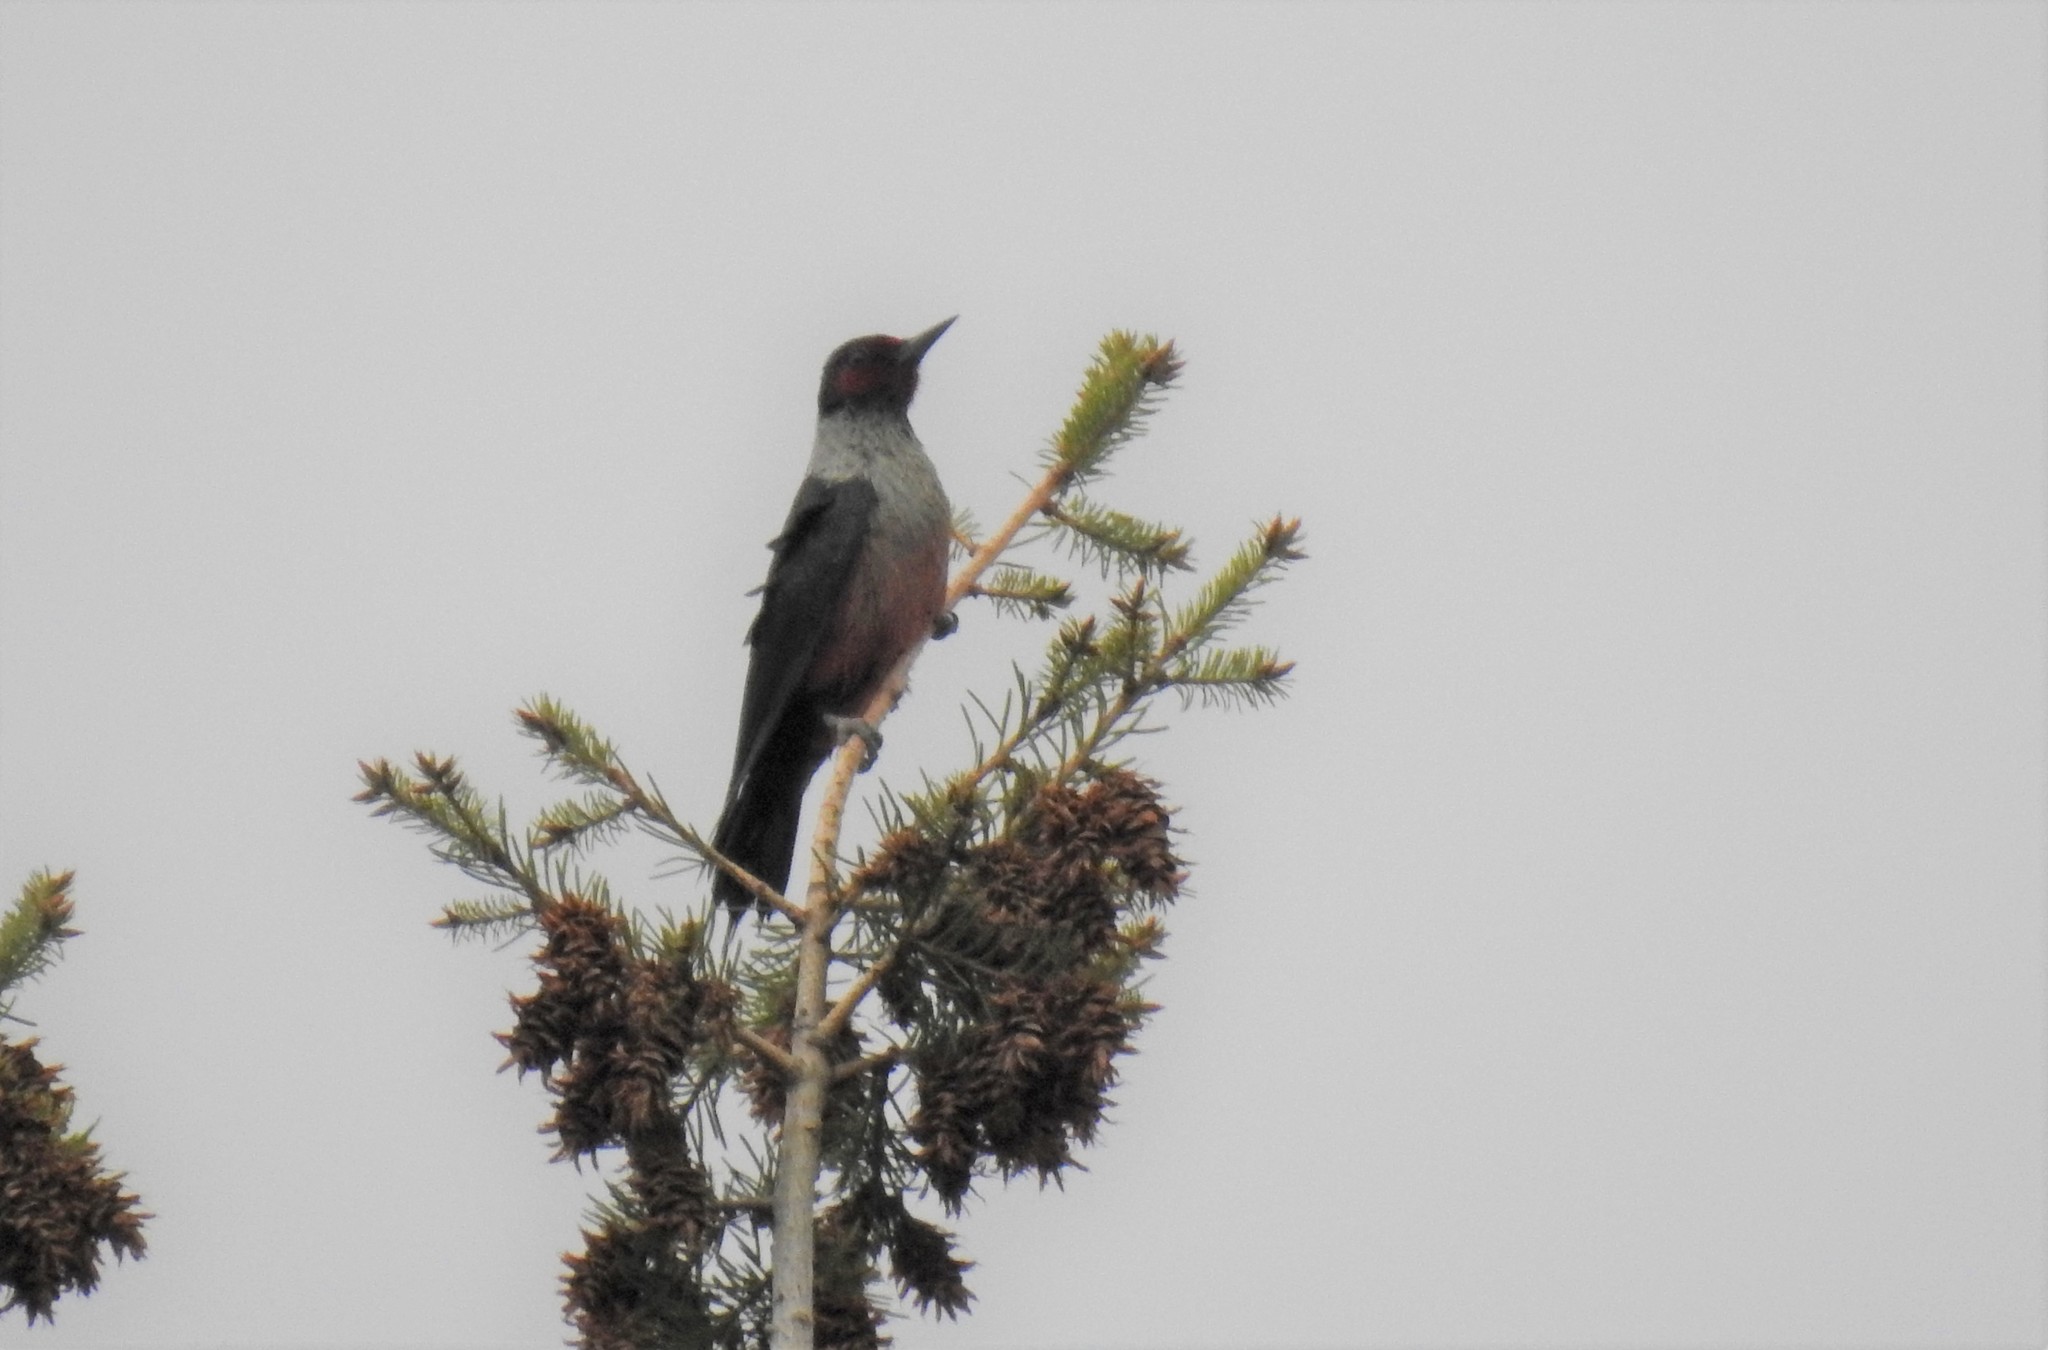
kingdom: Animalia
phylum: Chordata
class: Aves
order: Piciformes
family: Picidae
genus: Melanerpes
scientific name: Melanerpes lewis
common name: Lewis's woodpecker
